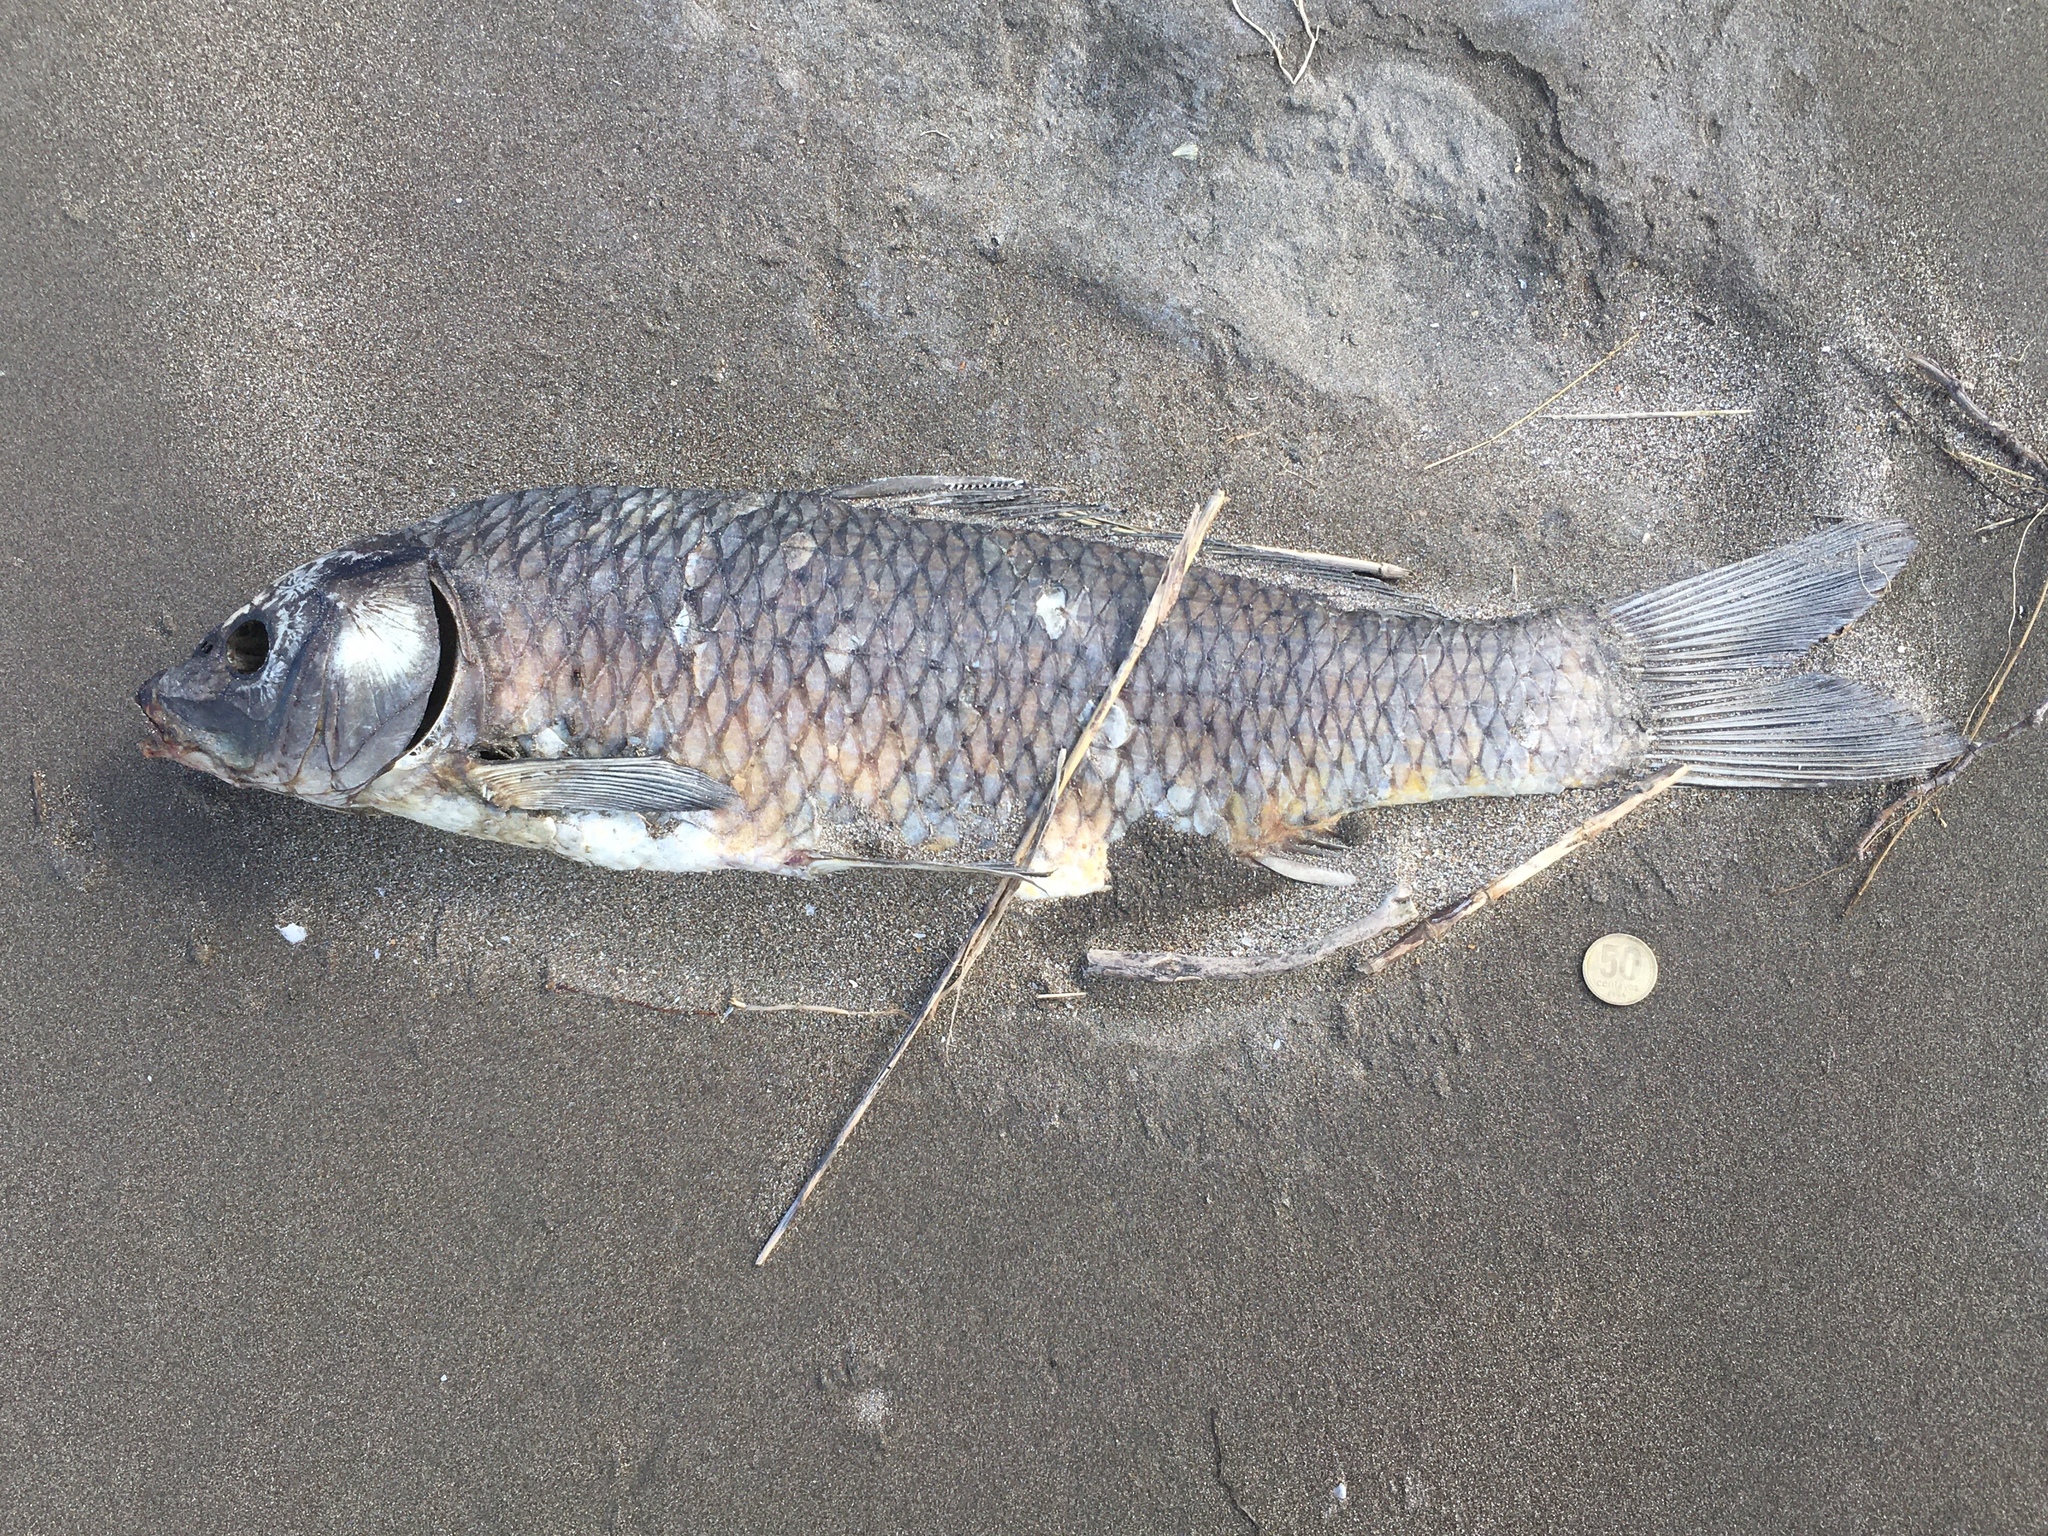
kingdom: Animalia
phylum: Chordata
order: Cypriniformes
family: Cyprinidae
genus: Cyprinus
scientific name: Cyprinus carpio
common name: Common carp
